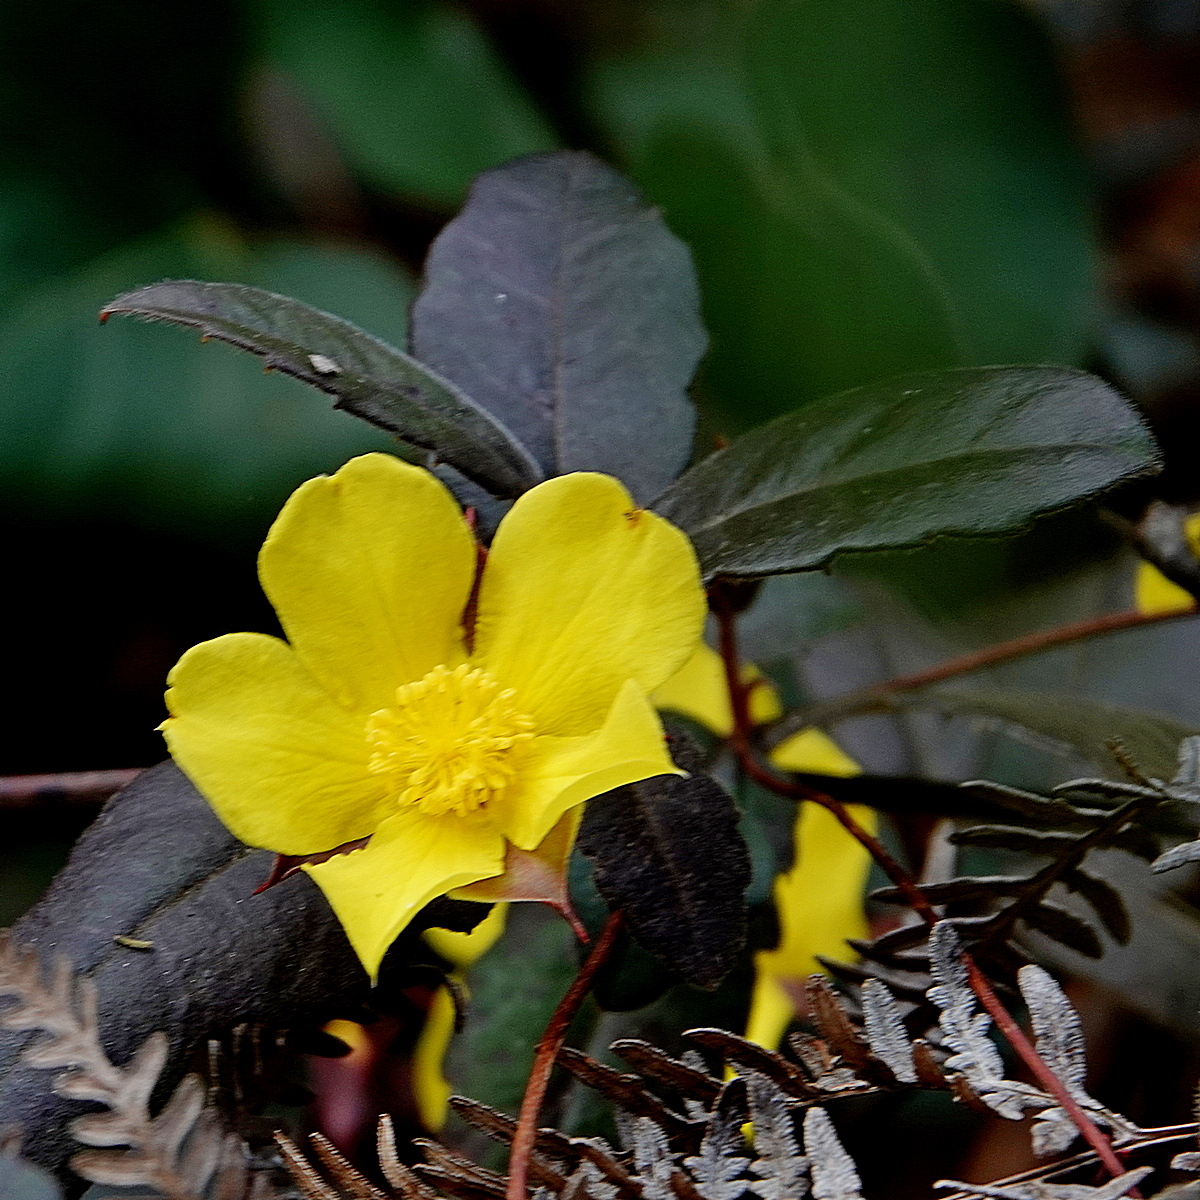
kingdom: Plantae
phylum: Tracheophyta
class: Magnoliopsida
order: Dilleniales
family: Dilleniaceae
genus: Hibbertia
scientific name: Hibbertia dentata
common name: Trailing guinea-flower
